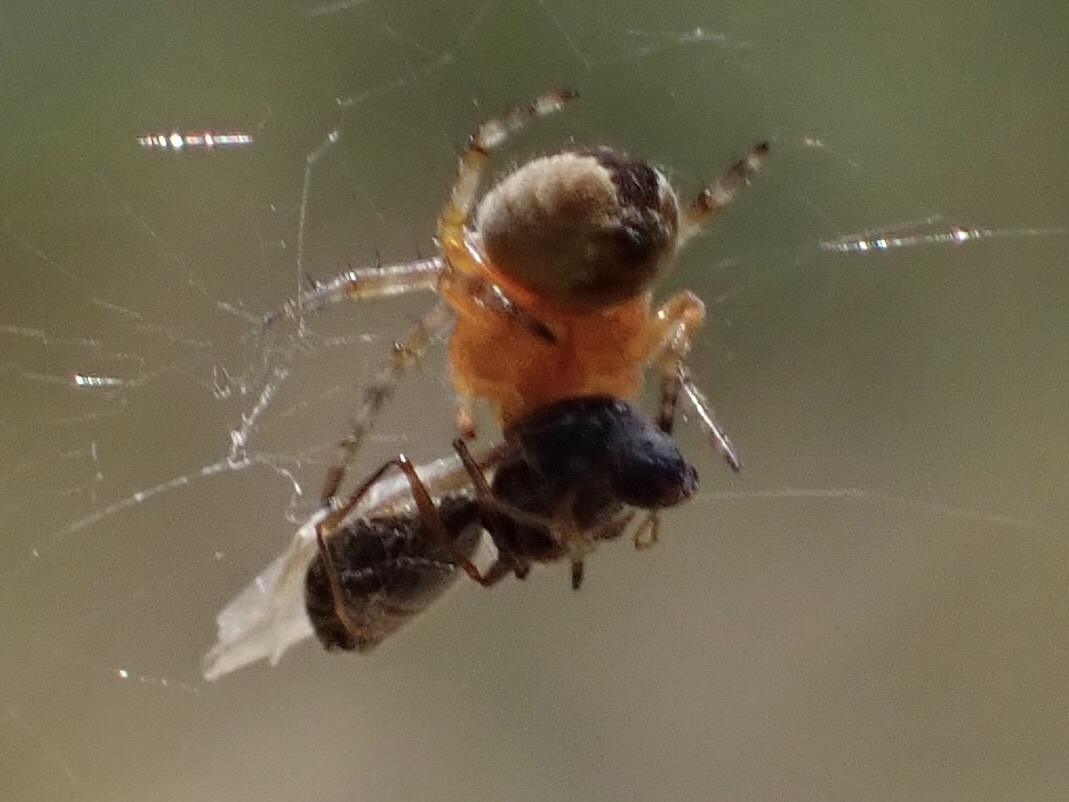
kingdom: Animalia
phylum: Arthropoda
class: Arachnida
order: Araneae
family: Araneidae
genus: Araneus
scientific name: Araneus diadematus
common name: Cross orbweaver
